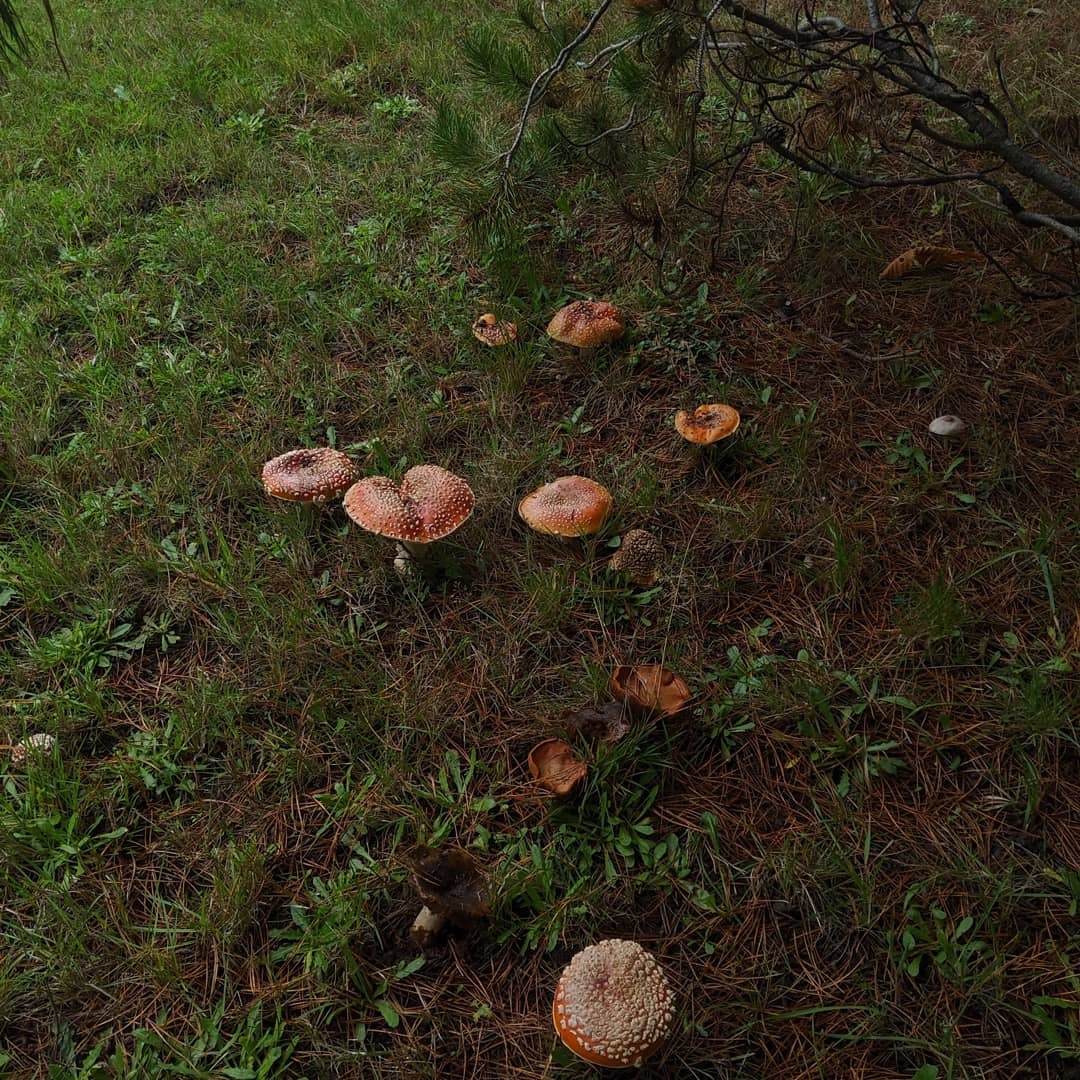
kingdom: Fungi
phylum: Basidiomycota
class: Agaricomycetes
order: Agaricales
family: Amanitaceae
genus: Amanita
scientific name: Amanita muscaria
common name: Fly agaric
